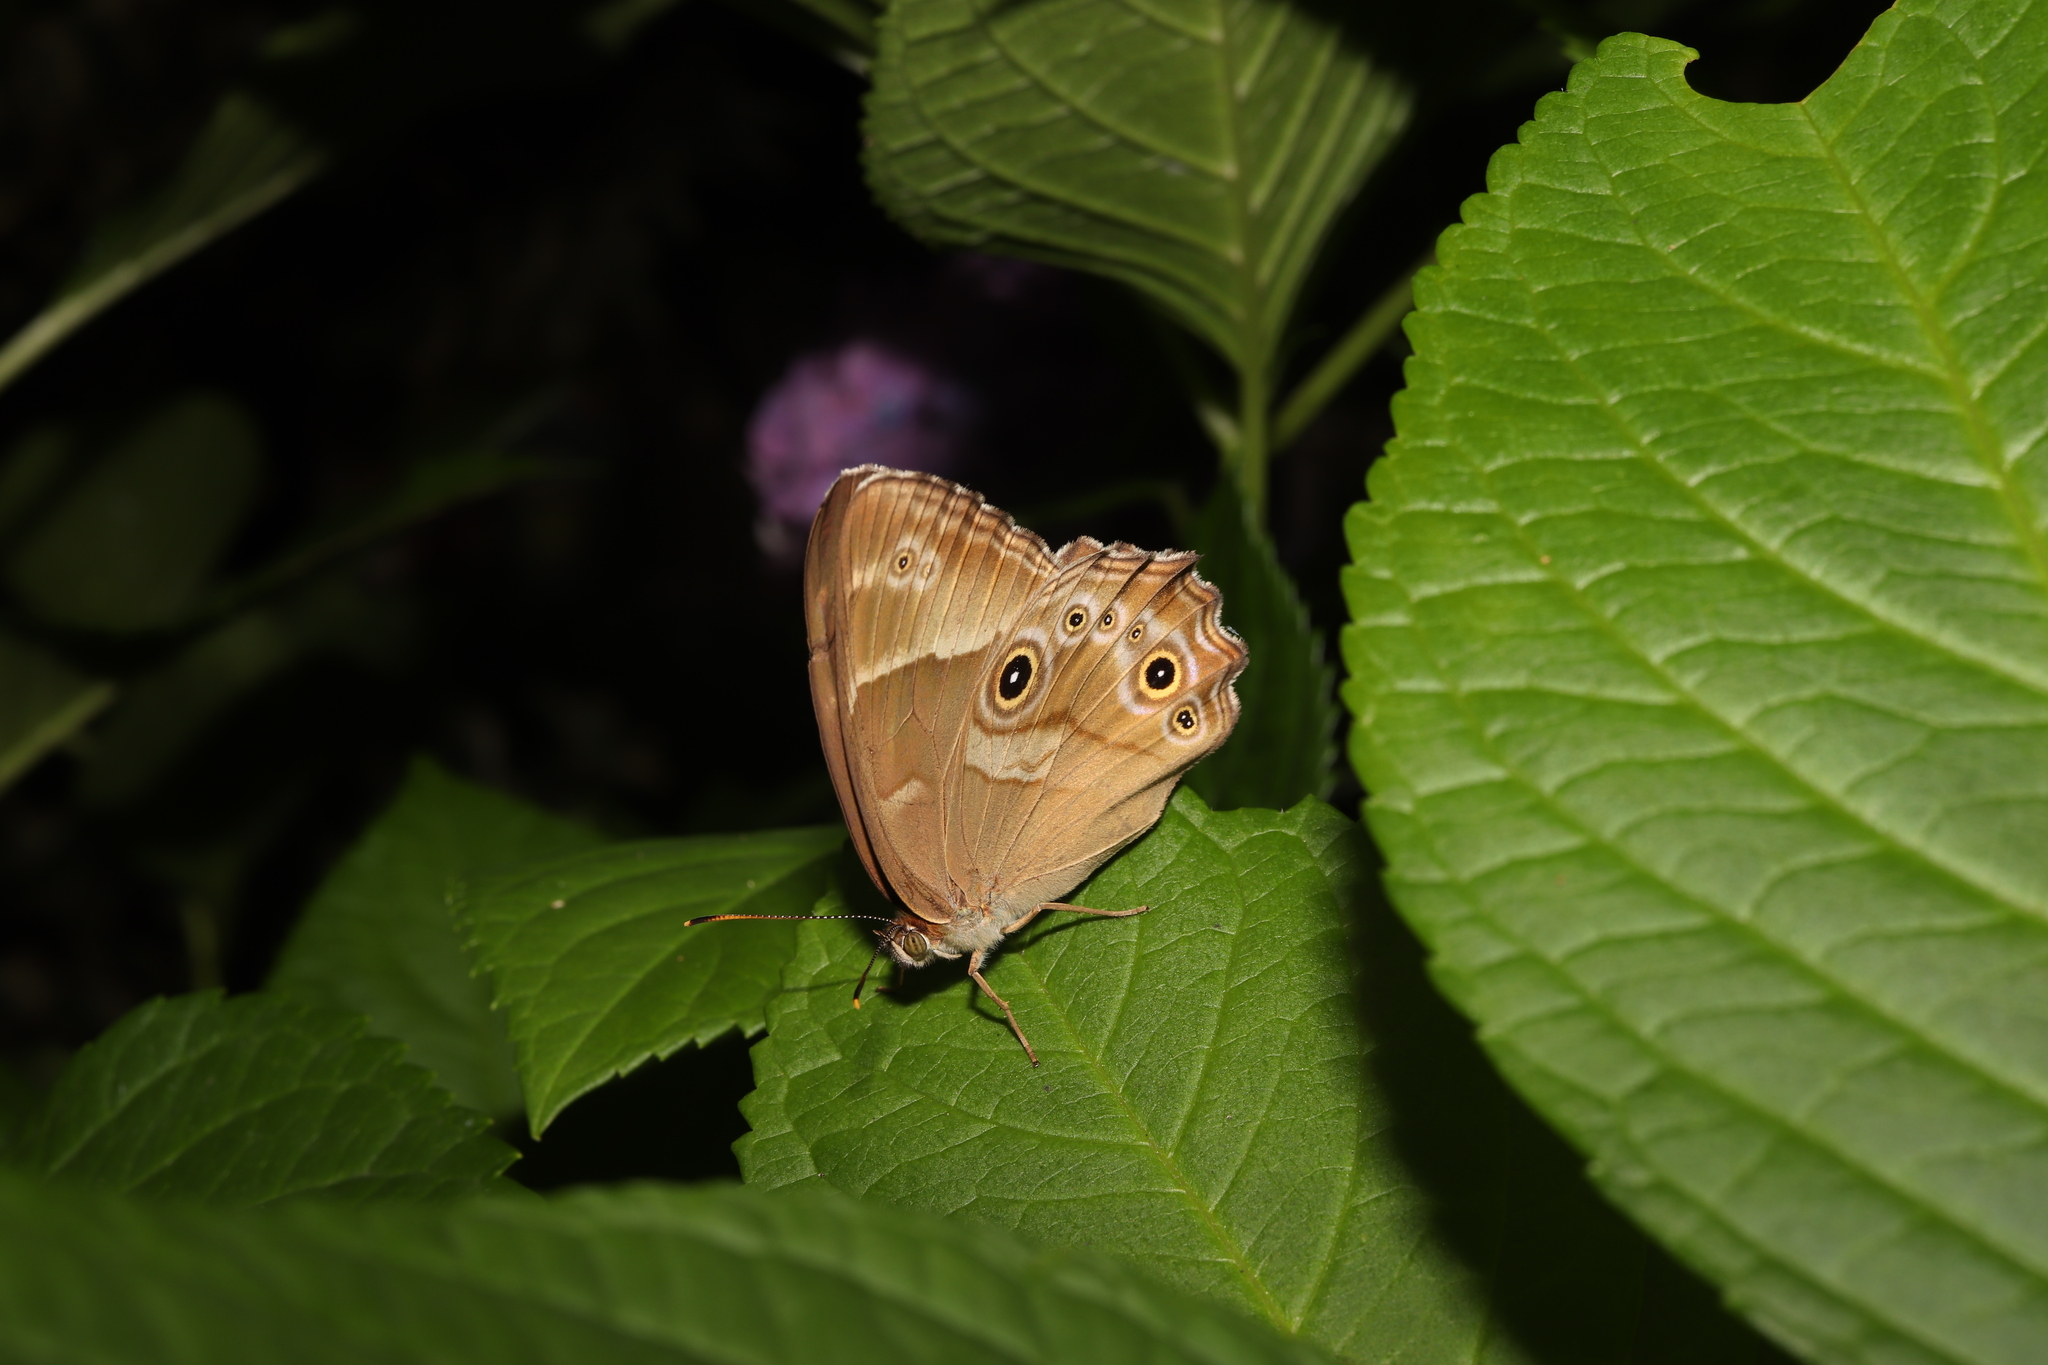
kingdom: Animalia
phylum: Arthropoda
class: Insecta
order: Lepidoptera
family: Nymphalidae
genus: Lethe
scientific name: Lethe sicelis
